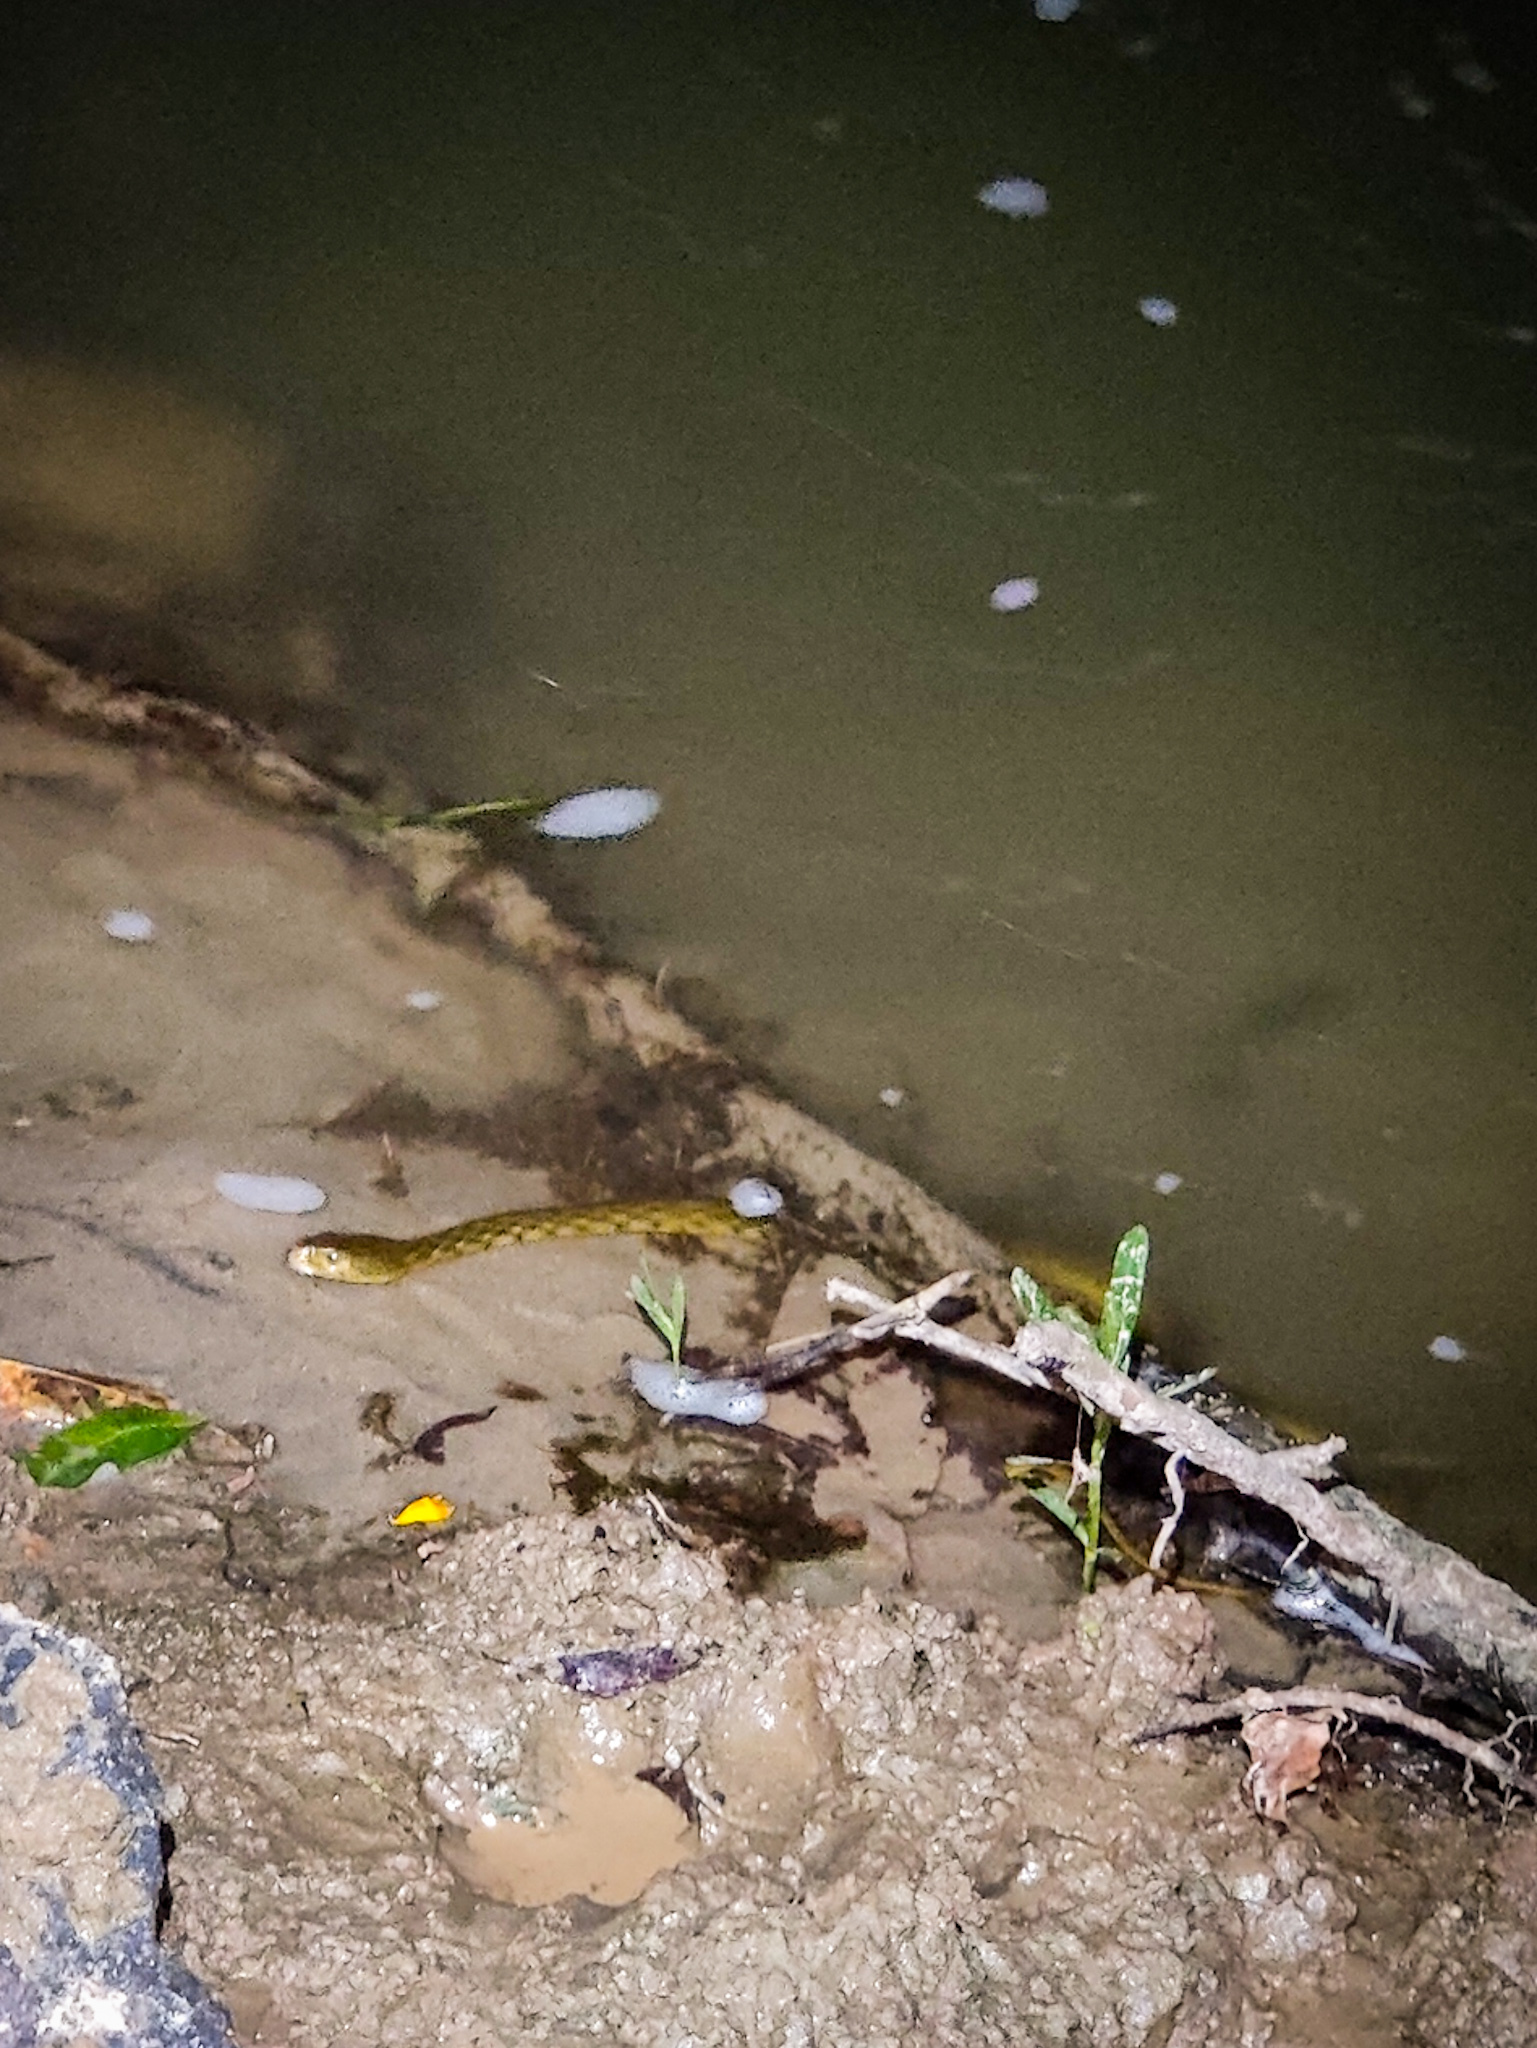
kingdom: Animalia
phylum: Chordata
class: Squamata
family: Colubridae
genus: Fowlea
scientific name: Fowlea piscator
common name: Asiatic water snake
